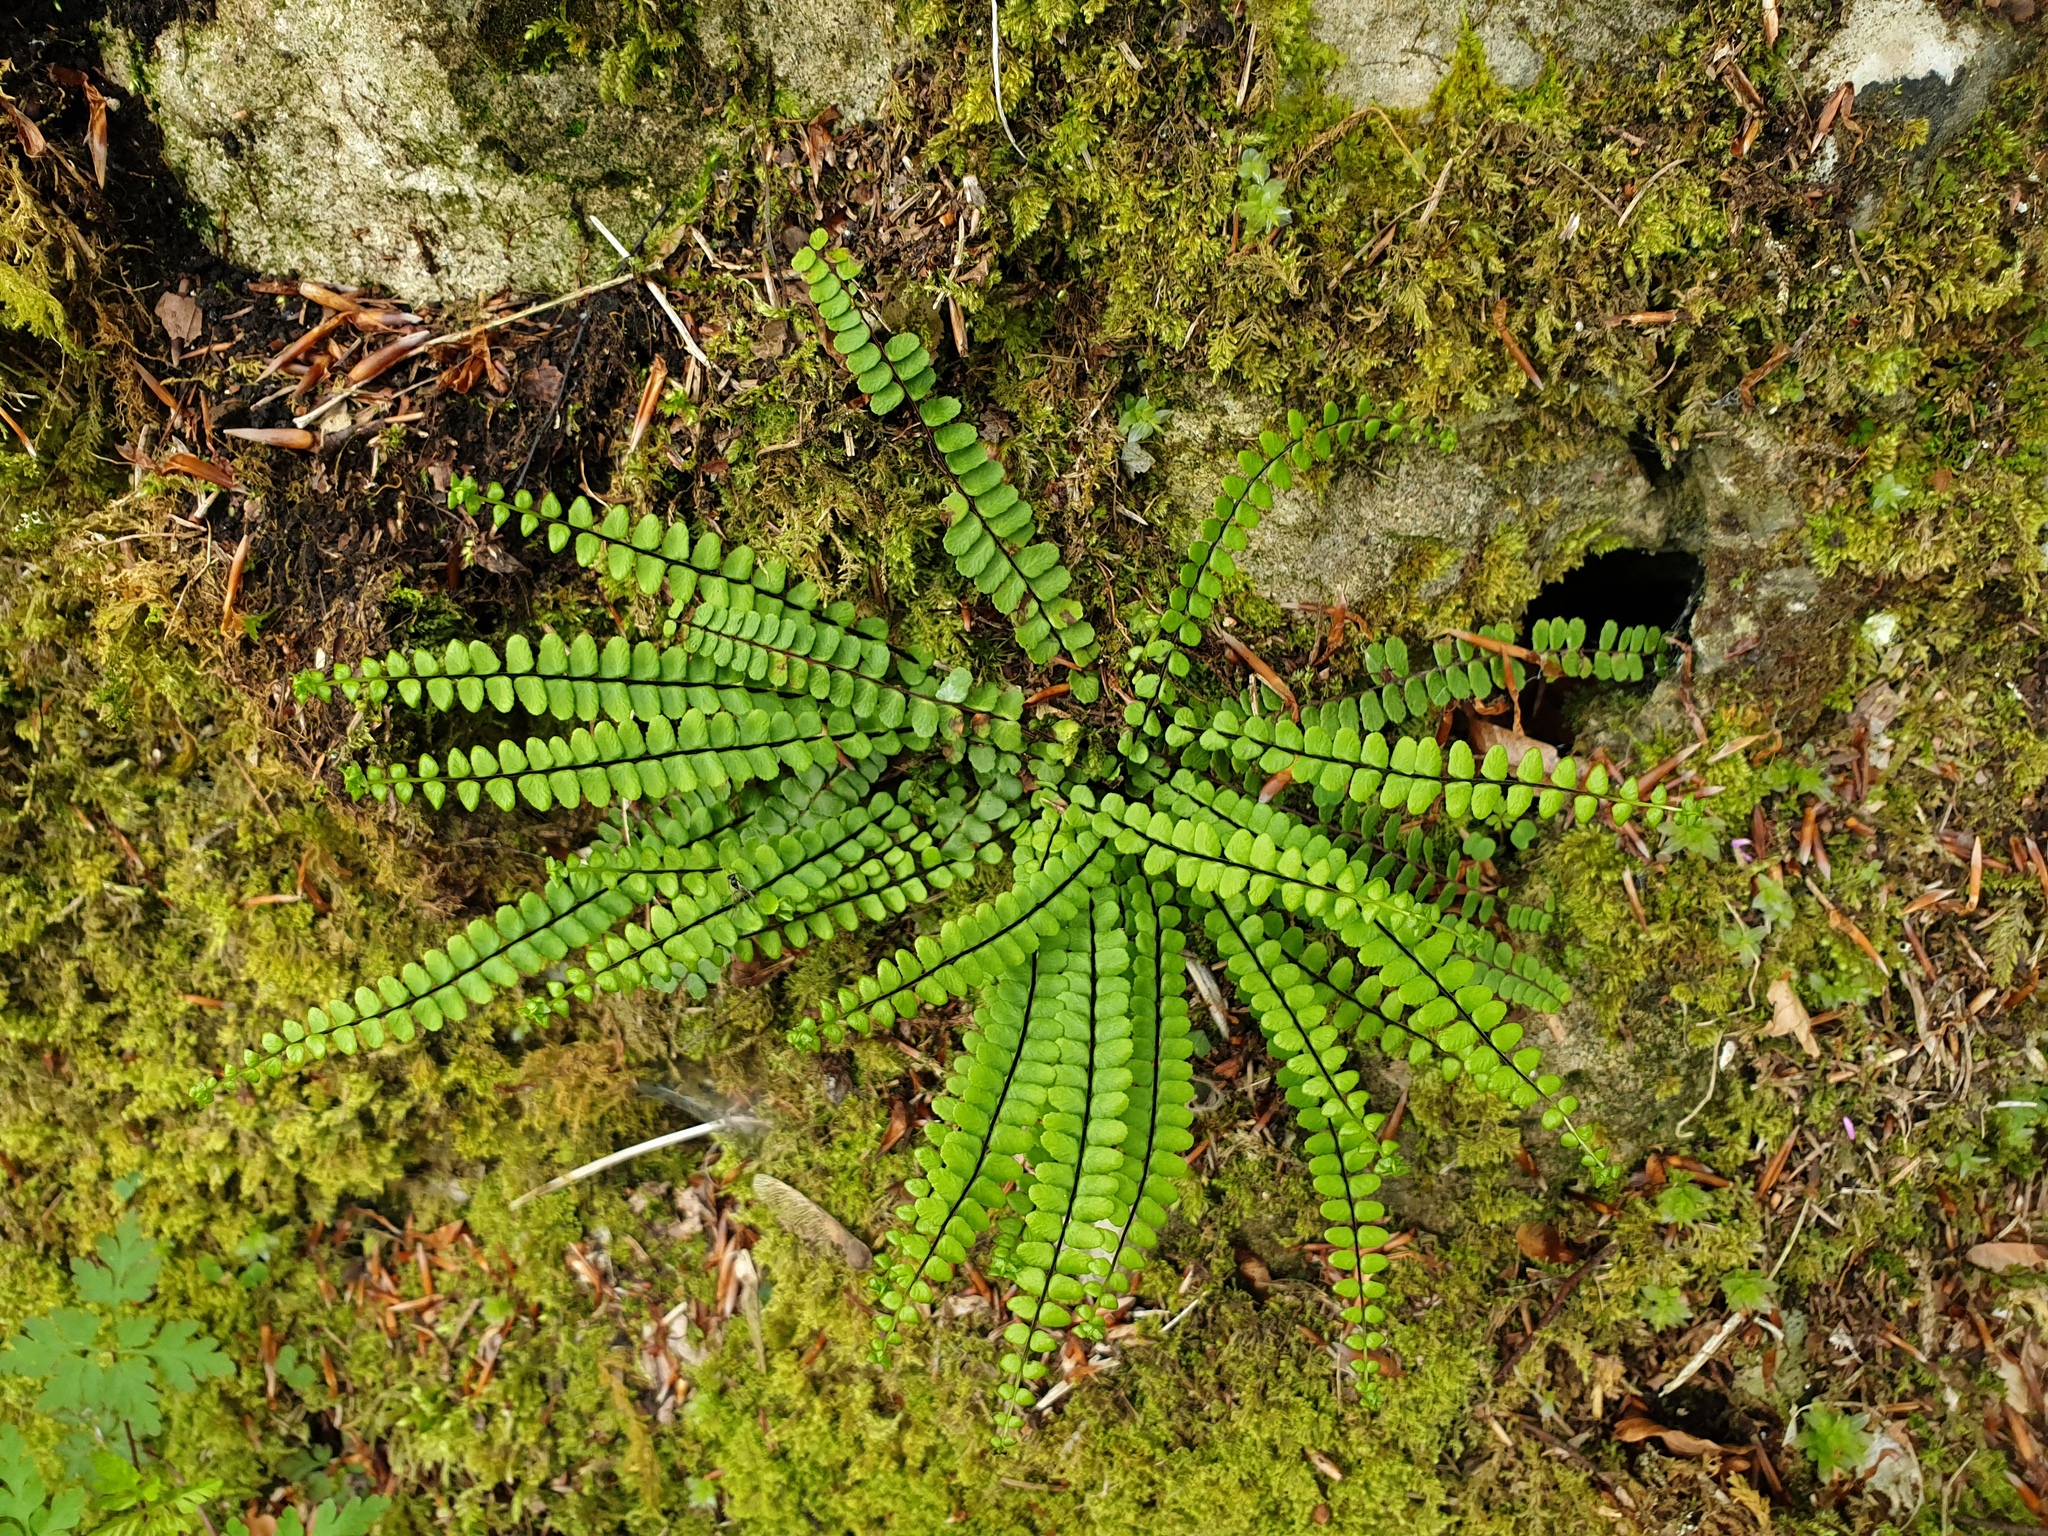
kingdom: Plantae
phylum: Tracheophyta
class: Polypodiopsida
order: Polypodiales
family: Aspleniaceae
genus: Asplenium
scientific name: Asplenium trichomanes
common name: Maidenhair spleenwort
